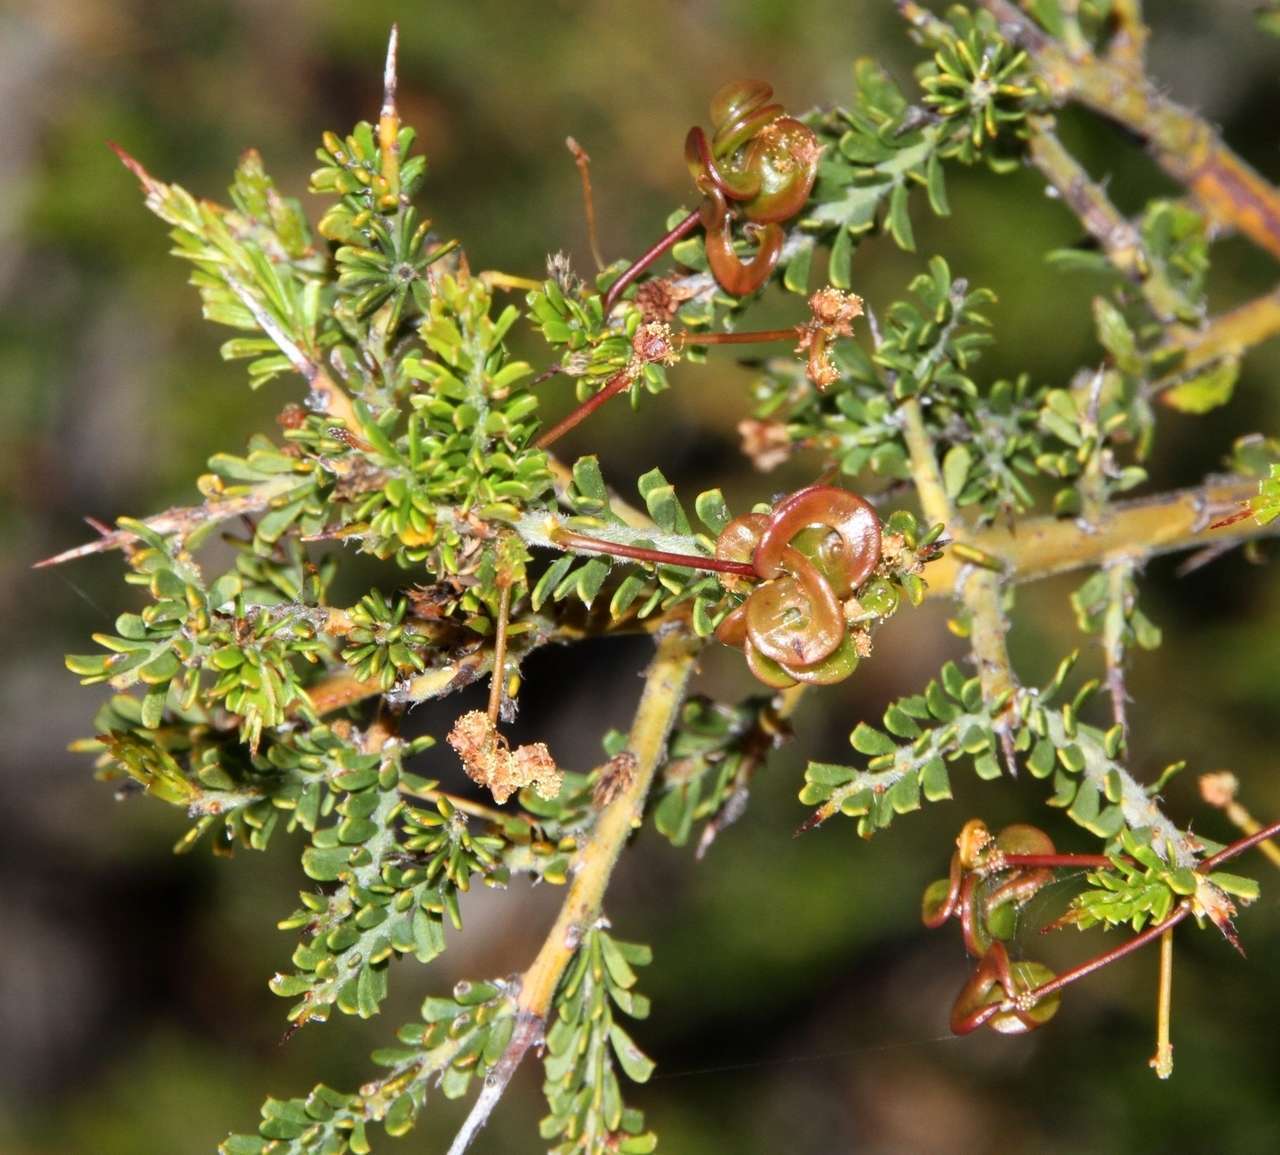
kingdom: Plantae
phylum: Tracheophyta
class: Magnoliopsida
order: Fabales
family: Fabaceae
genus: Acacia
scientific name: Acacia acanthoclada
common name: Harrow wattle
